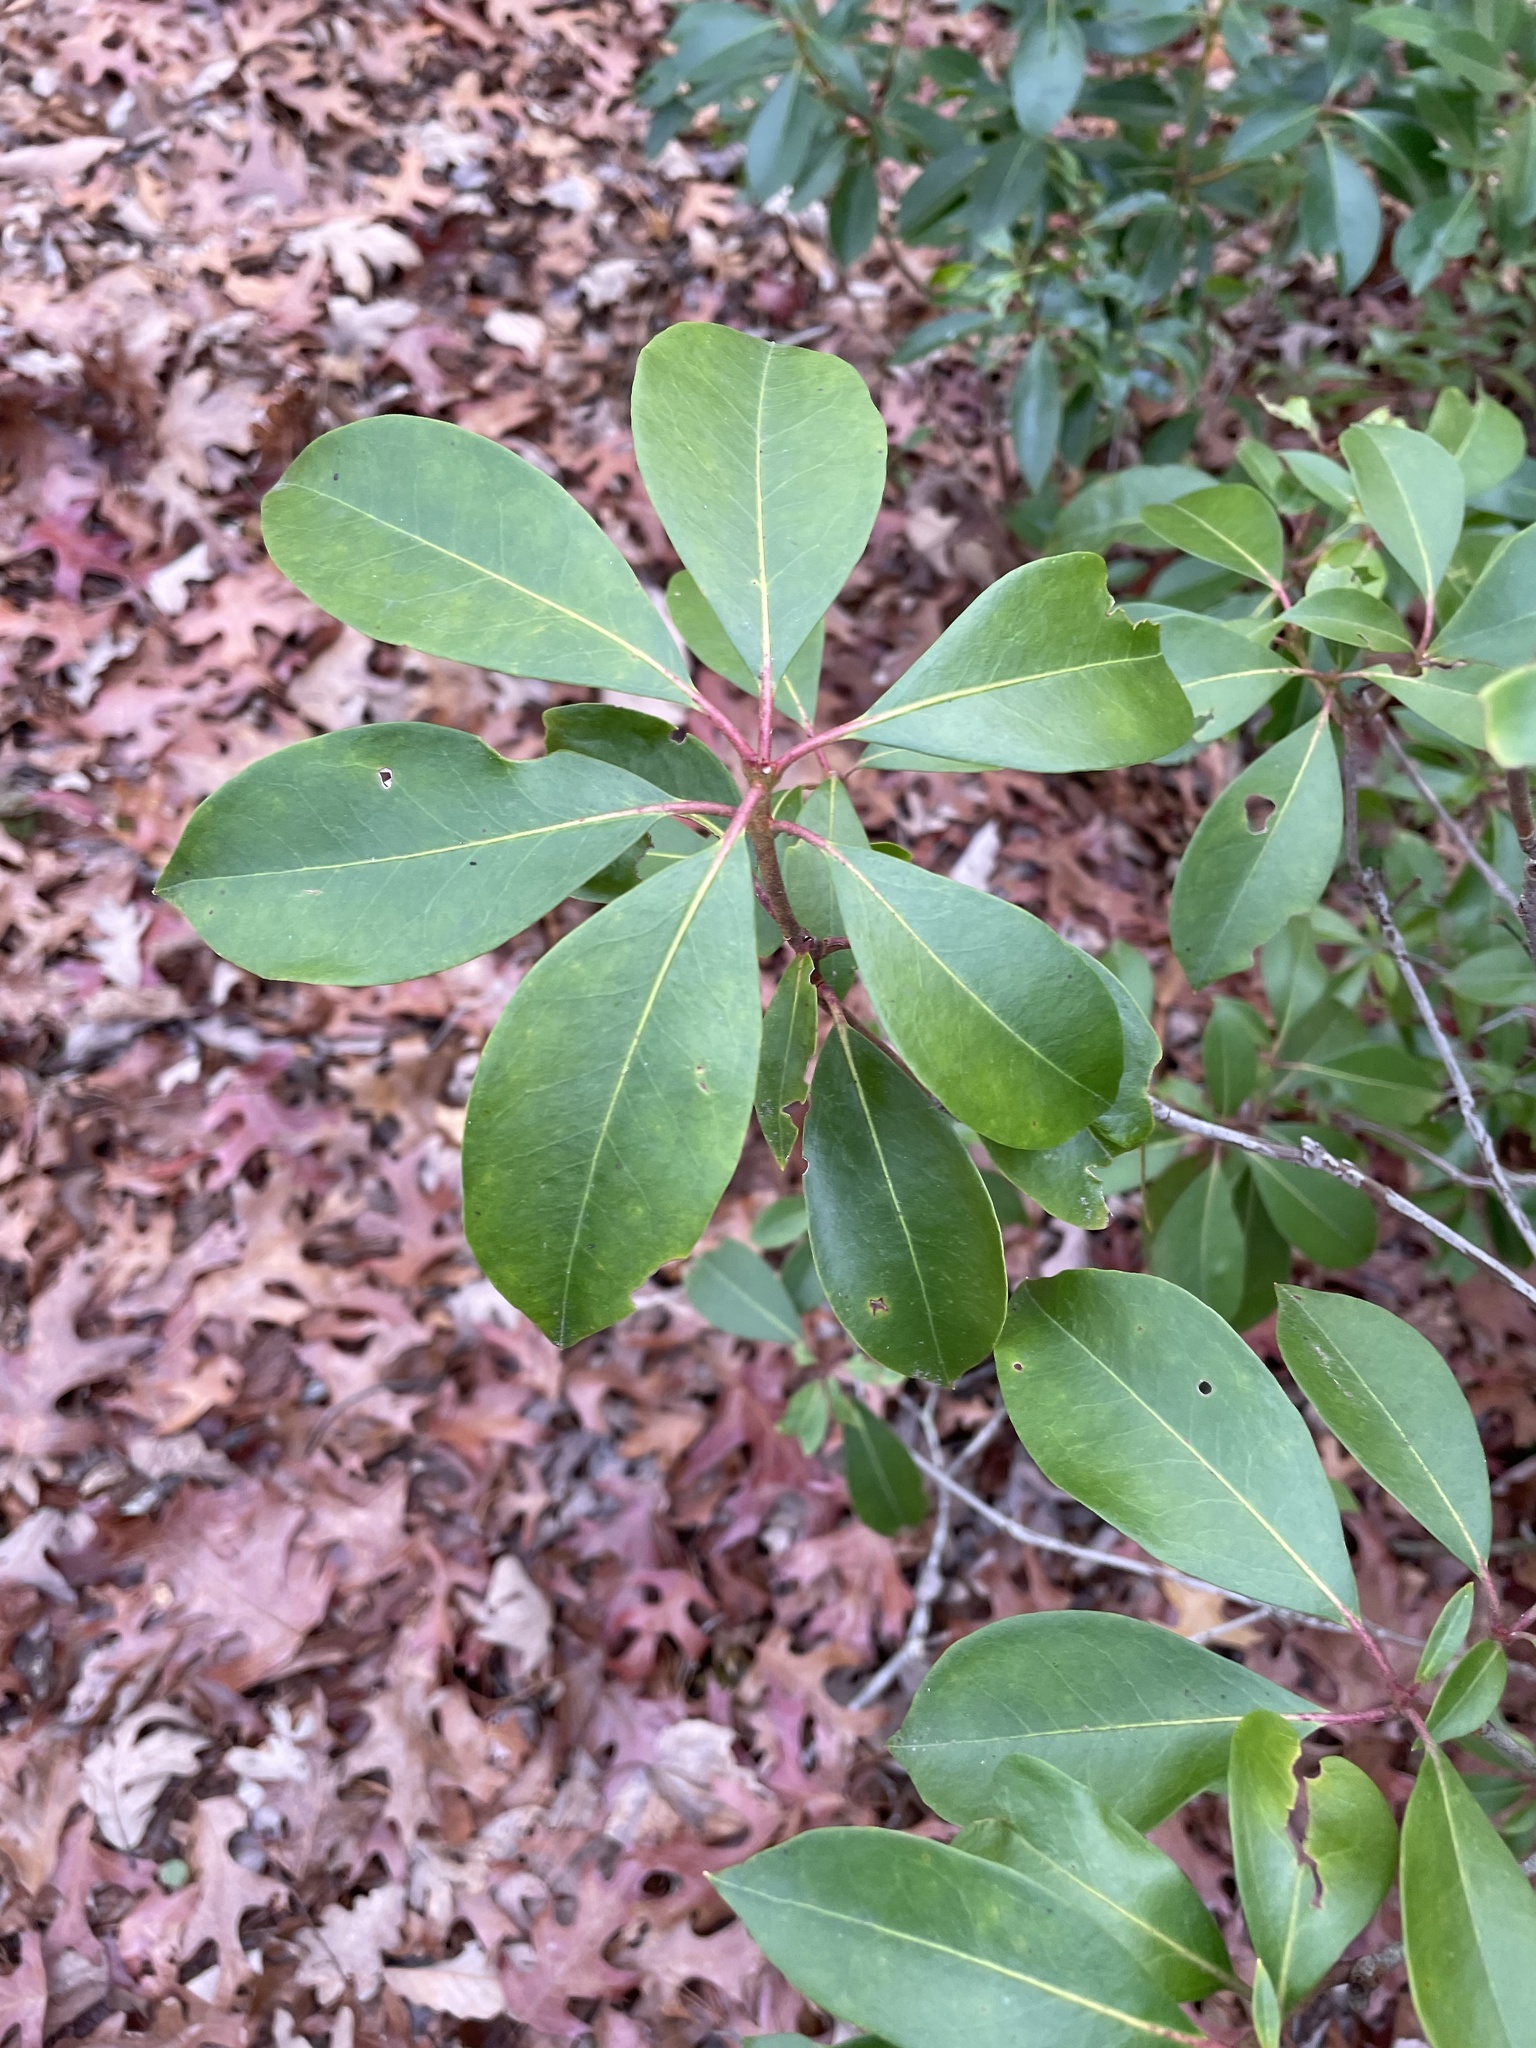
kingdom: Plantae
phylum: Tracheophyta
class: Magnoliopsida
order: Ericales
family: Ericaceae
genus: Kalmia
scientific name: Kalmia latifolia
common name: Mountain-laurel
